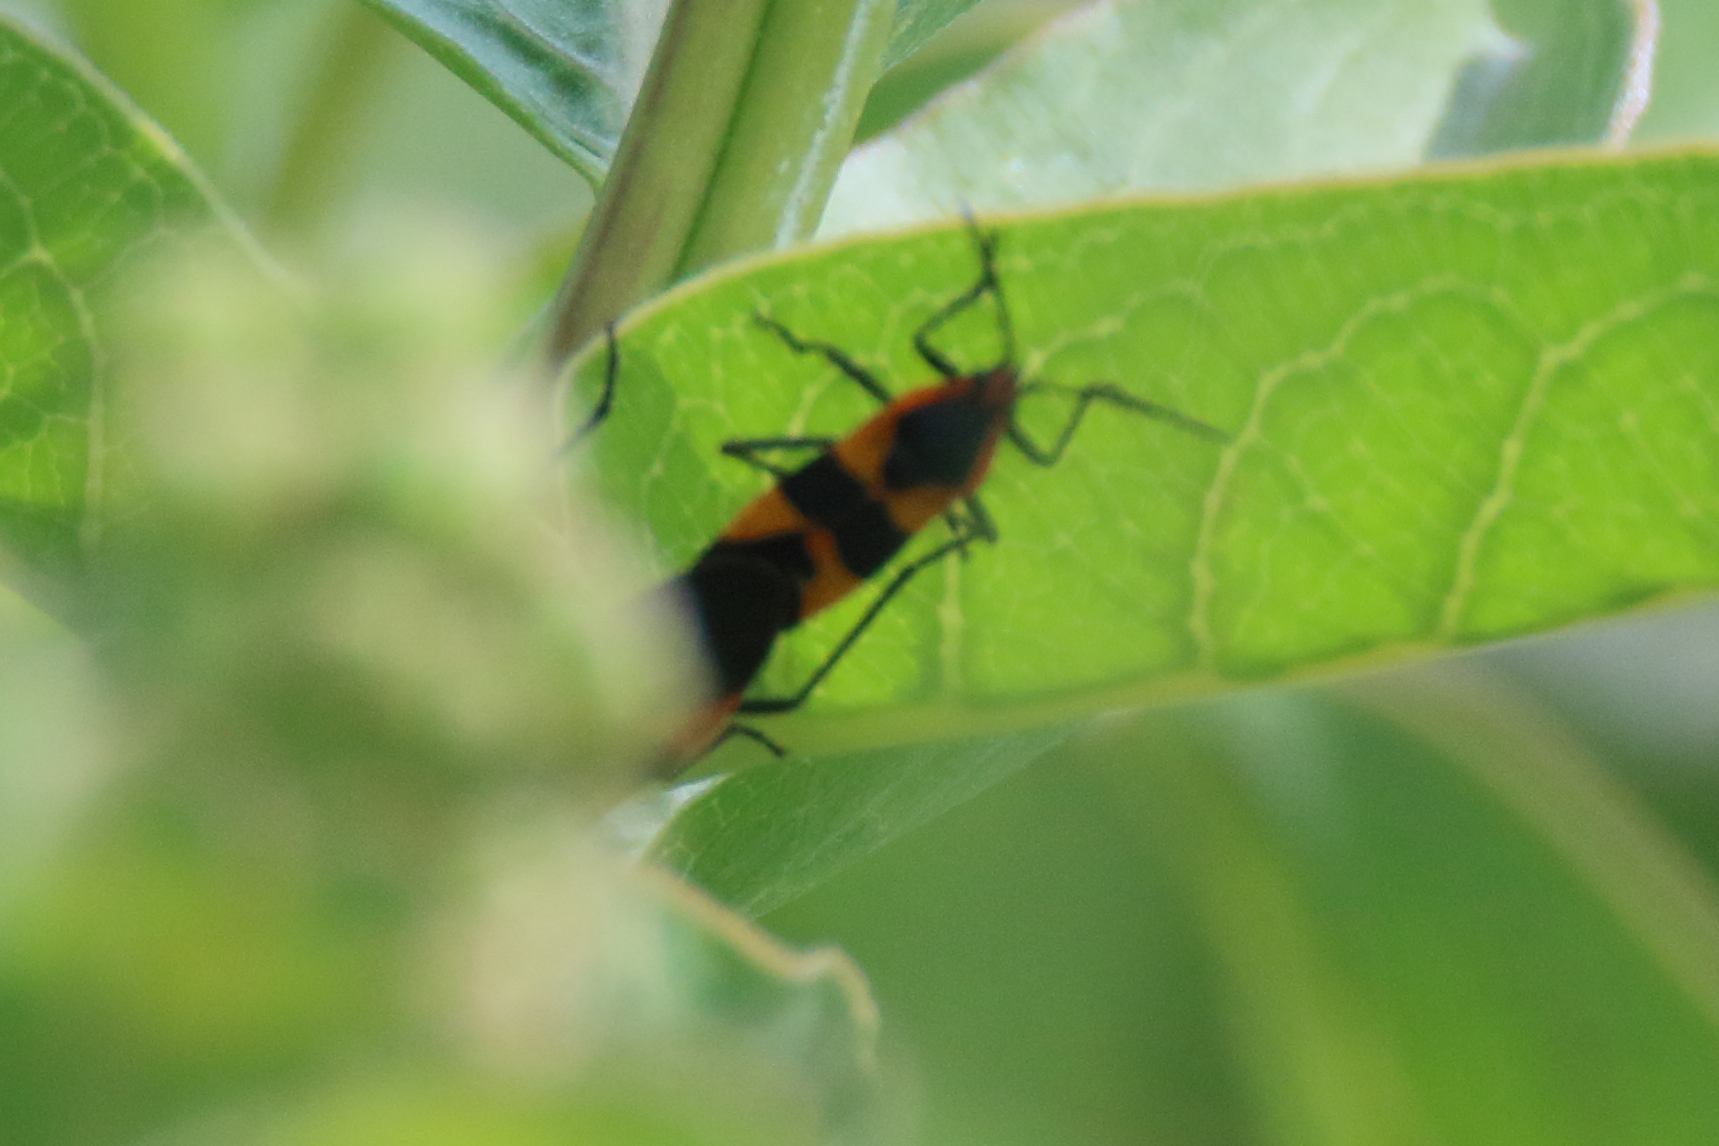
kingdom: Animalia
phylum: Arthropoda
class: Insecta
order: Hemiptera
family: Lygaeidae
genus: Oncopeltus
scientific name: Oncopeltus fasciatus
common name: Large milkweed bug
